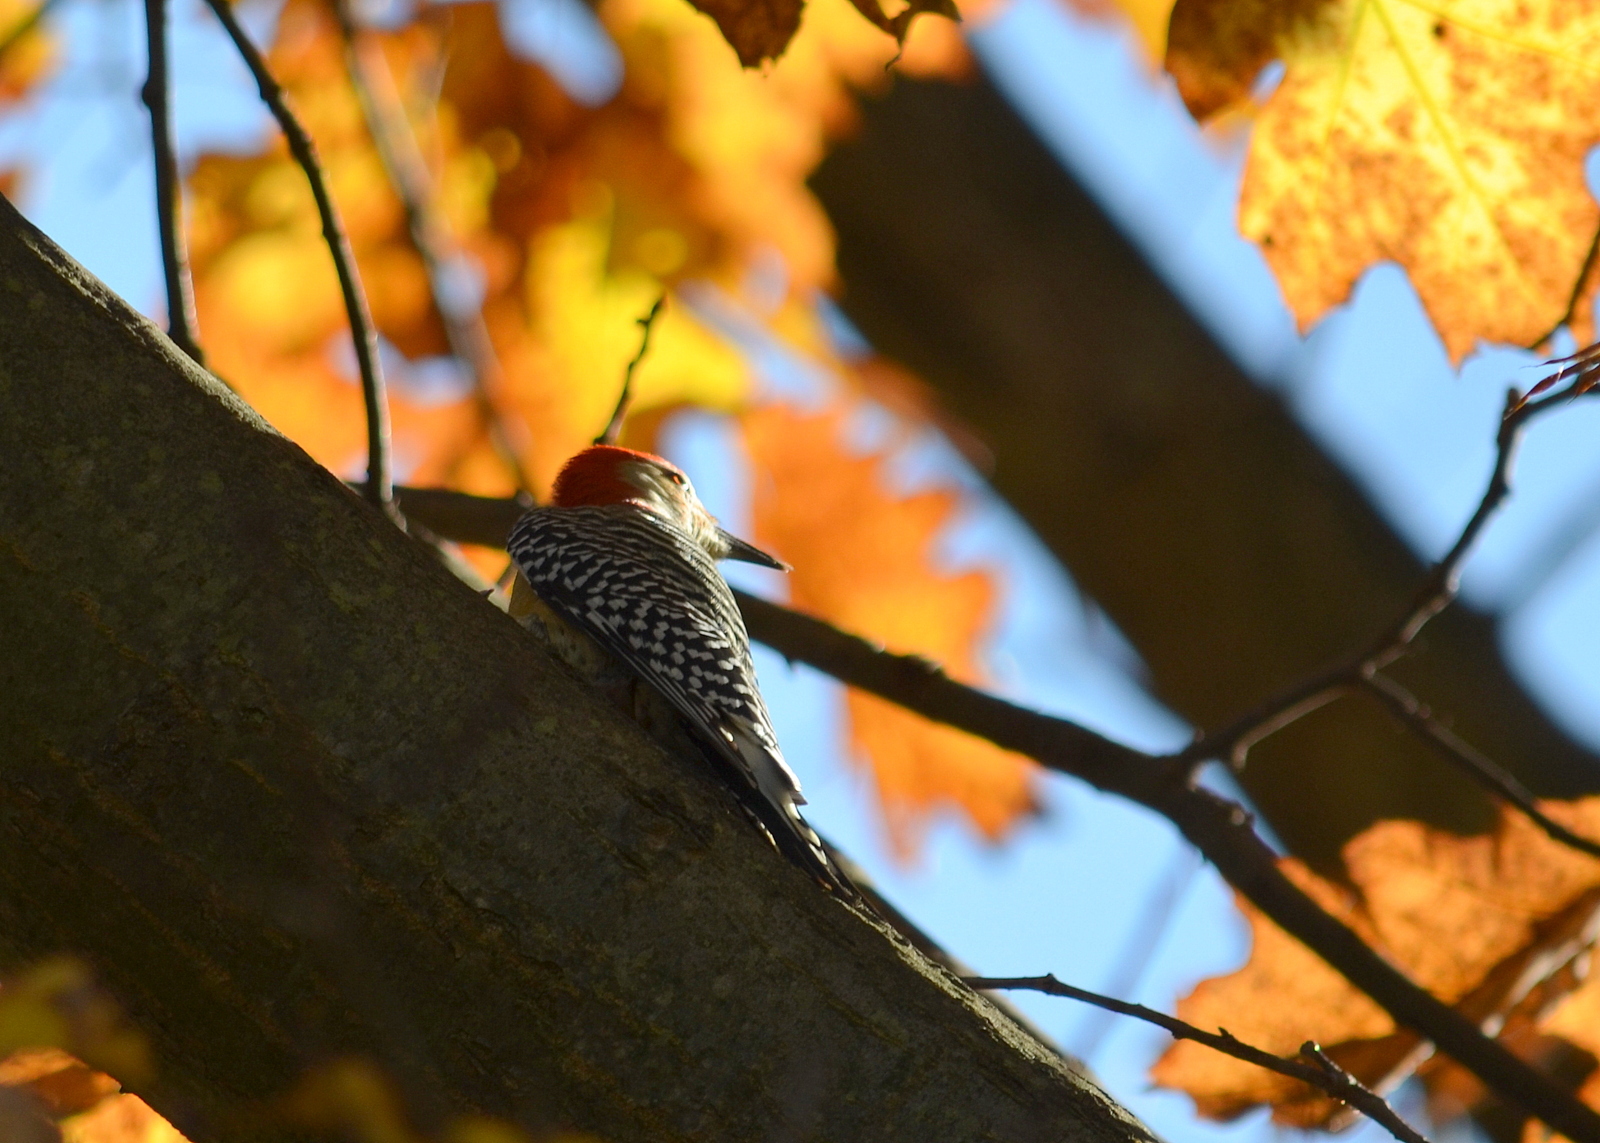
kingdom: Animalia
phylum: Chordata
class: Aves
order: Piciformes
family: Picidae
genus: Melanerpes
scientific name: Melanerpes carolinus
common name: Red-bellied woodpecker
